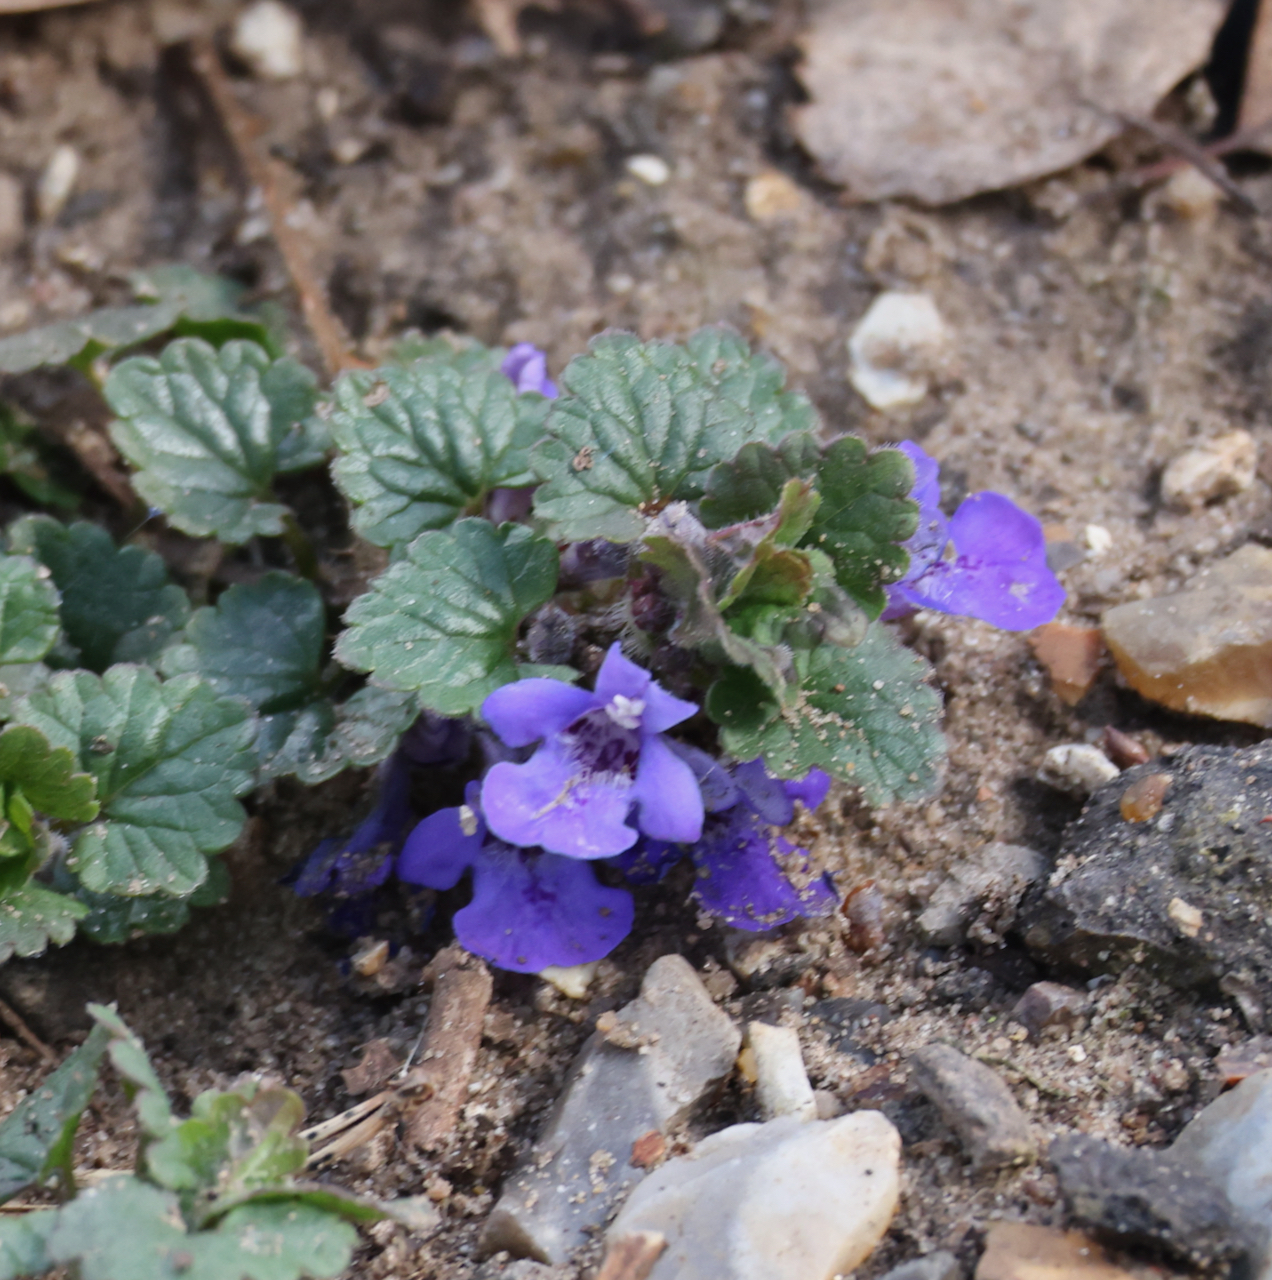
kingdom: Plantae
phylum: Tracheophyta
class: Magnoliopsida
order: Lamiales
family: Lamiaceae
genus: Glechoma
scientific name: Glechoma hederacea
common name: Ground ivy
